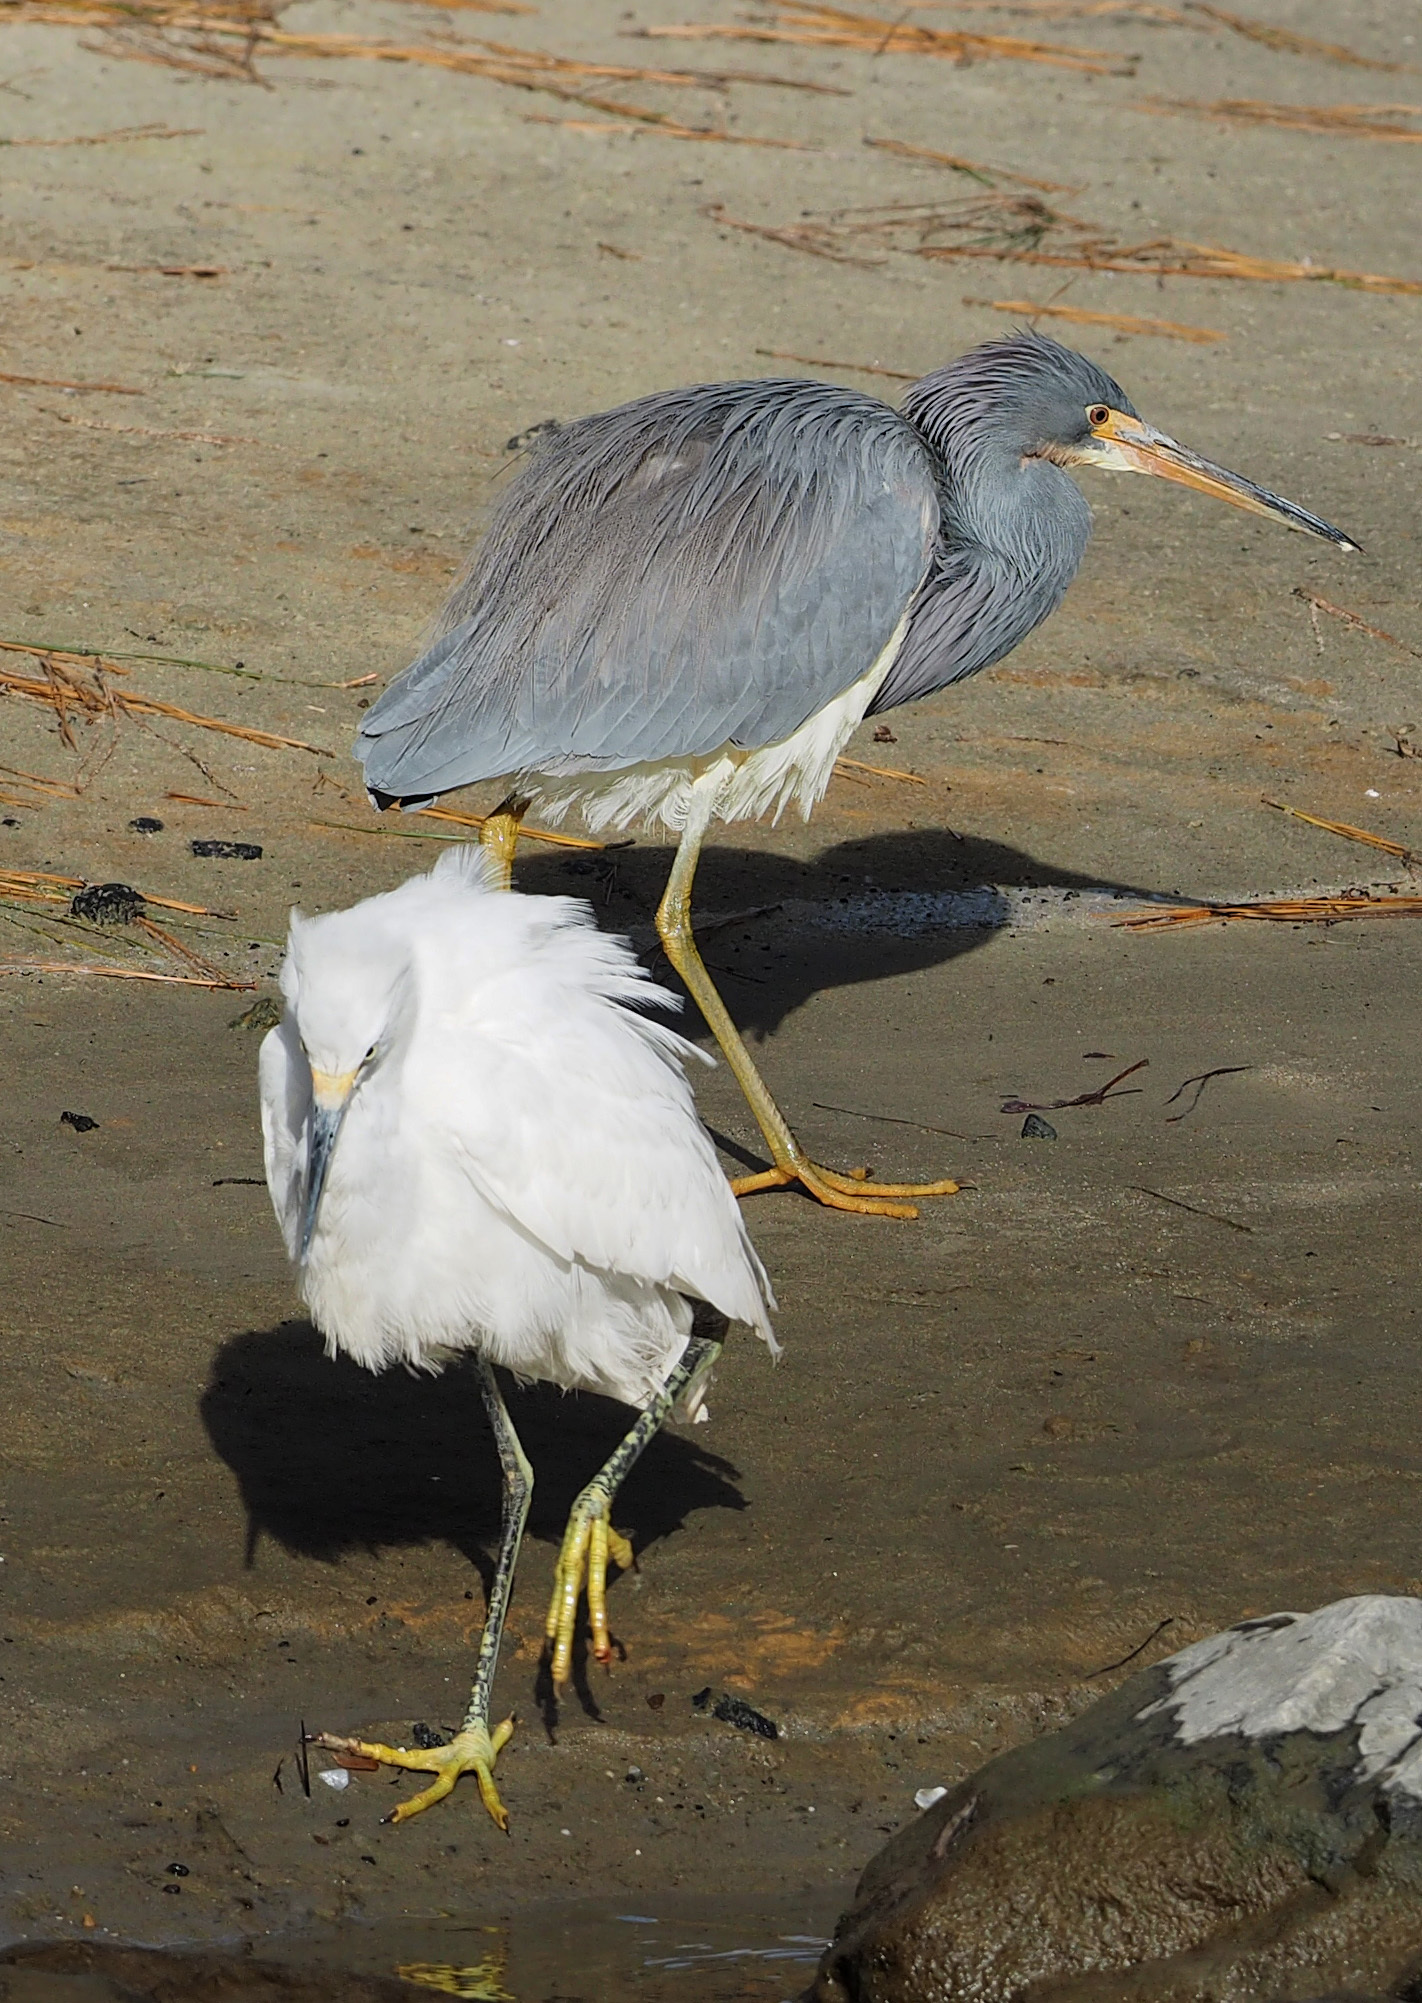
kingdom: Animalia
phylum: Chordata
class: Aves
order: Pelecaniformes
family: Ardeidae
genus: Egretta
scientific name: Egretta tricolor
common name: Tricolored heron
